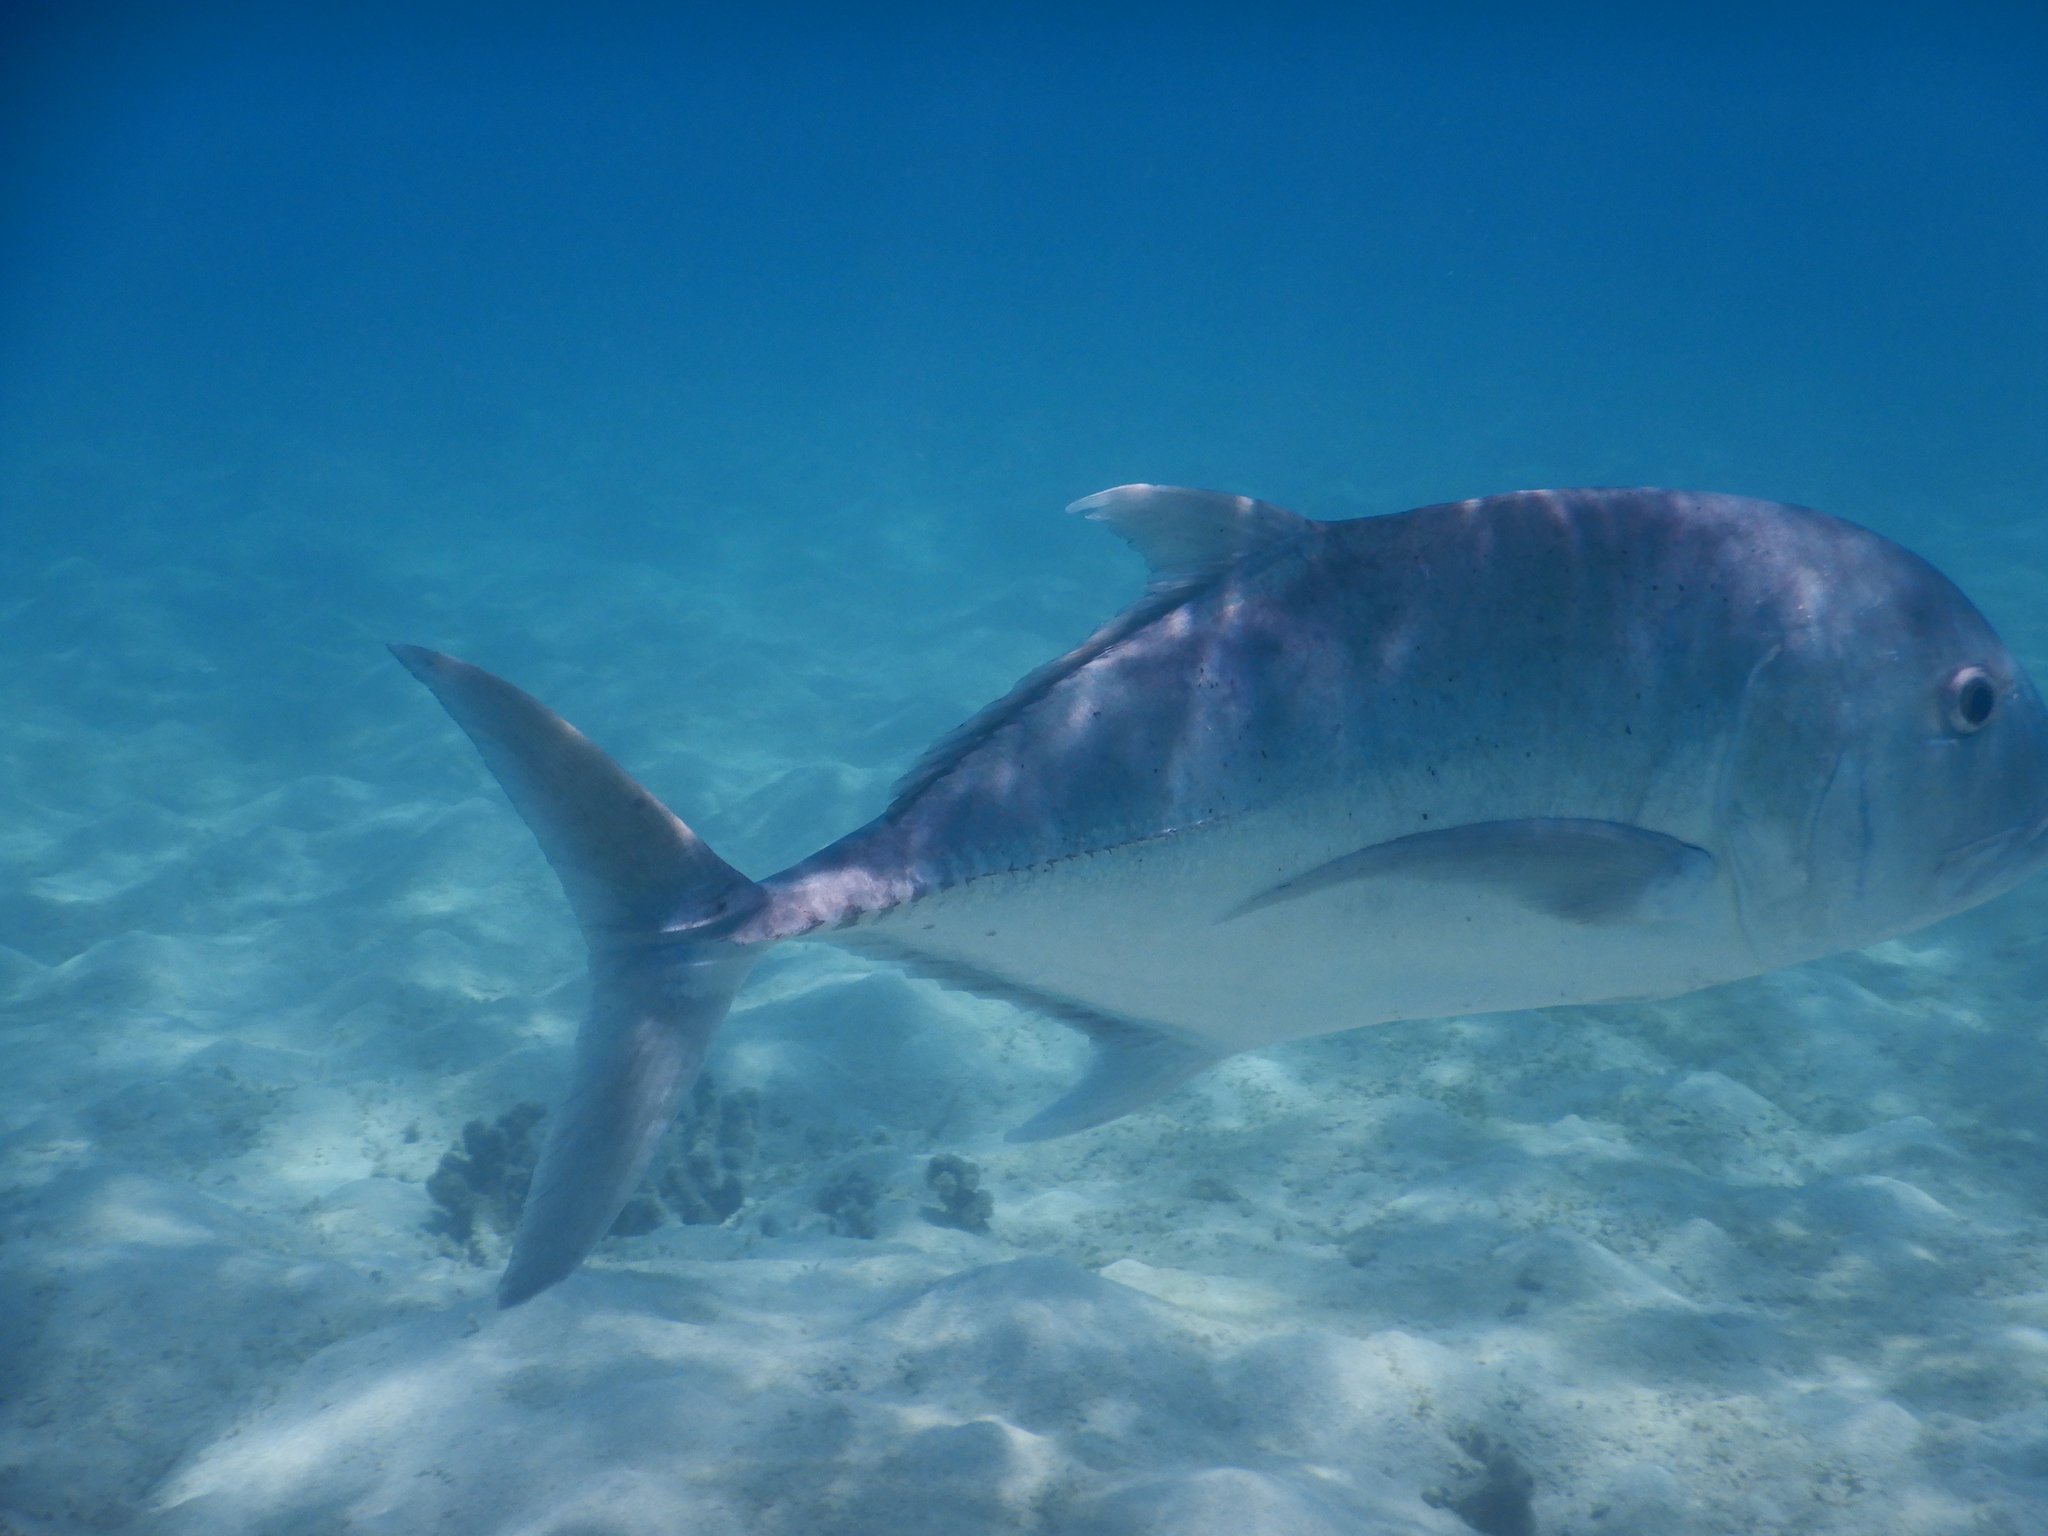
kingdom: Animalia
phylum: Chordata
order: Perciformes
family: Carangidae
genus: Caranx
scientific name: Caranx ignobilis
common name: Giant trevally
